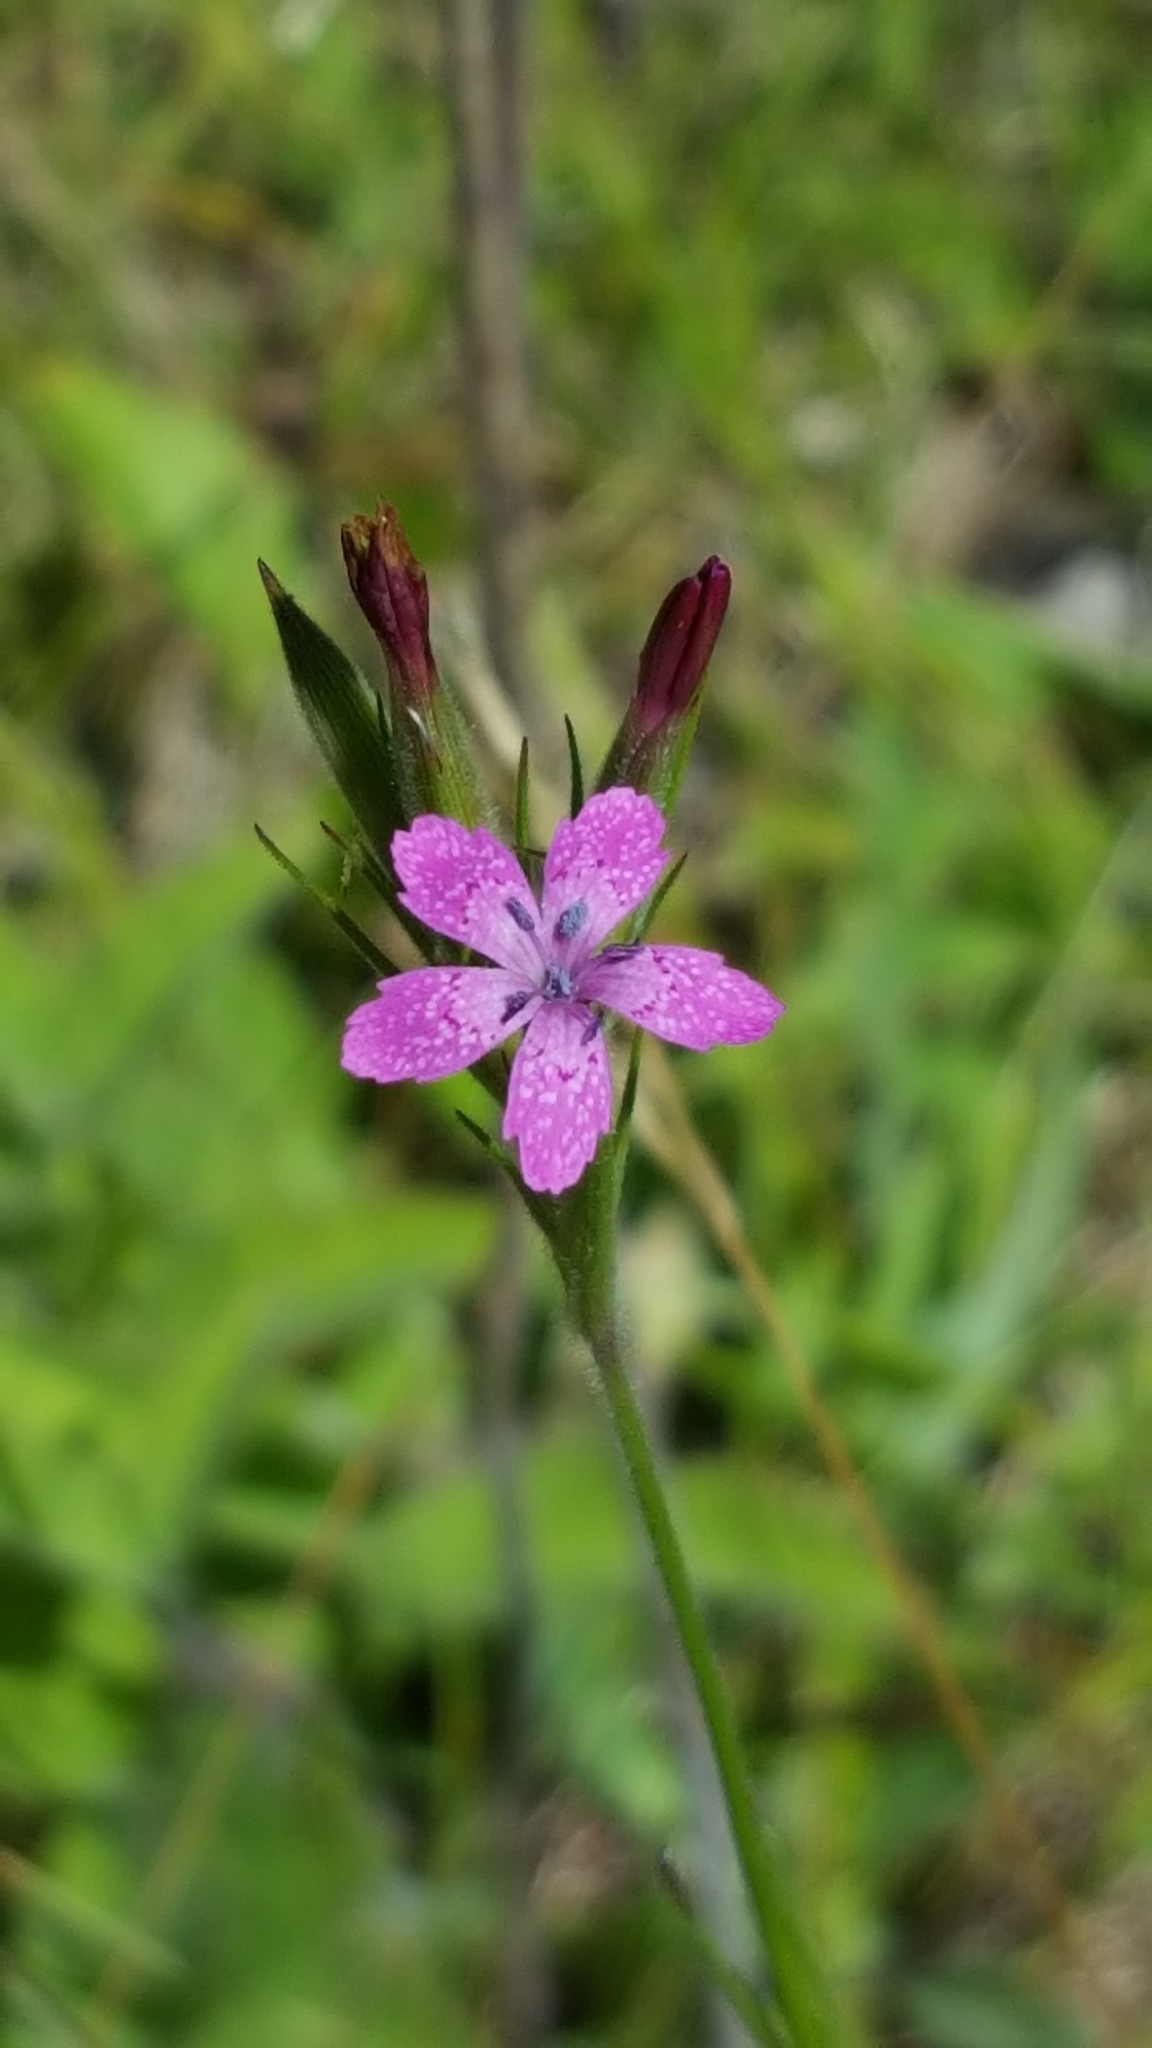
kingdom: Plantae
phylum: Tracheophyta
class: Magnoliopsida
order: Caryophyllales
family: Caryophyllaceae
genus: Dianthus
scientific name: Dianthus armeria
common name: Deptford pink
